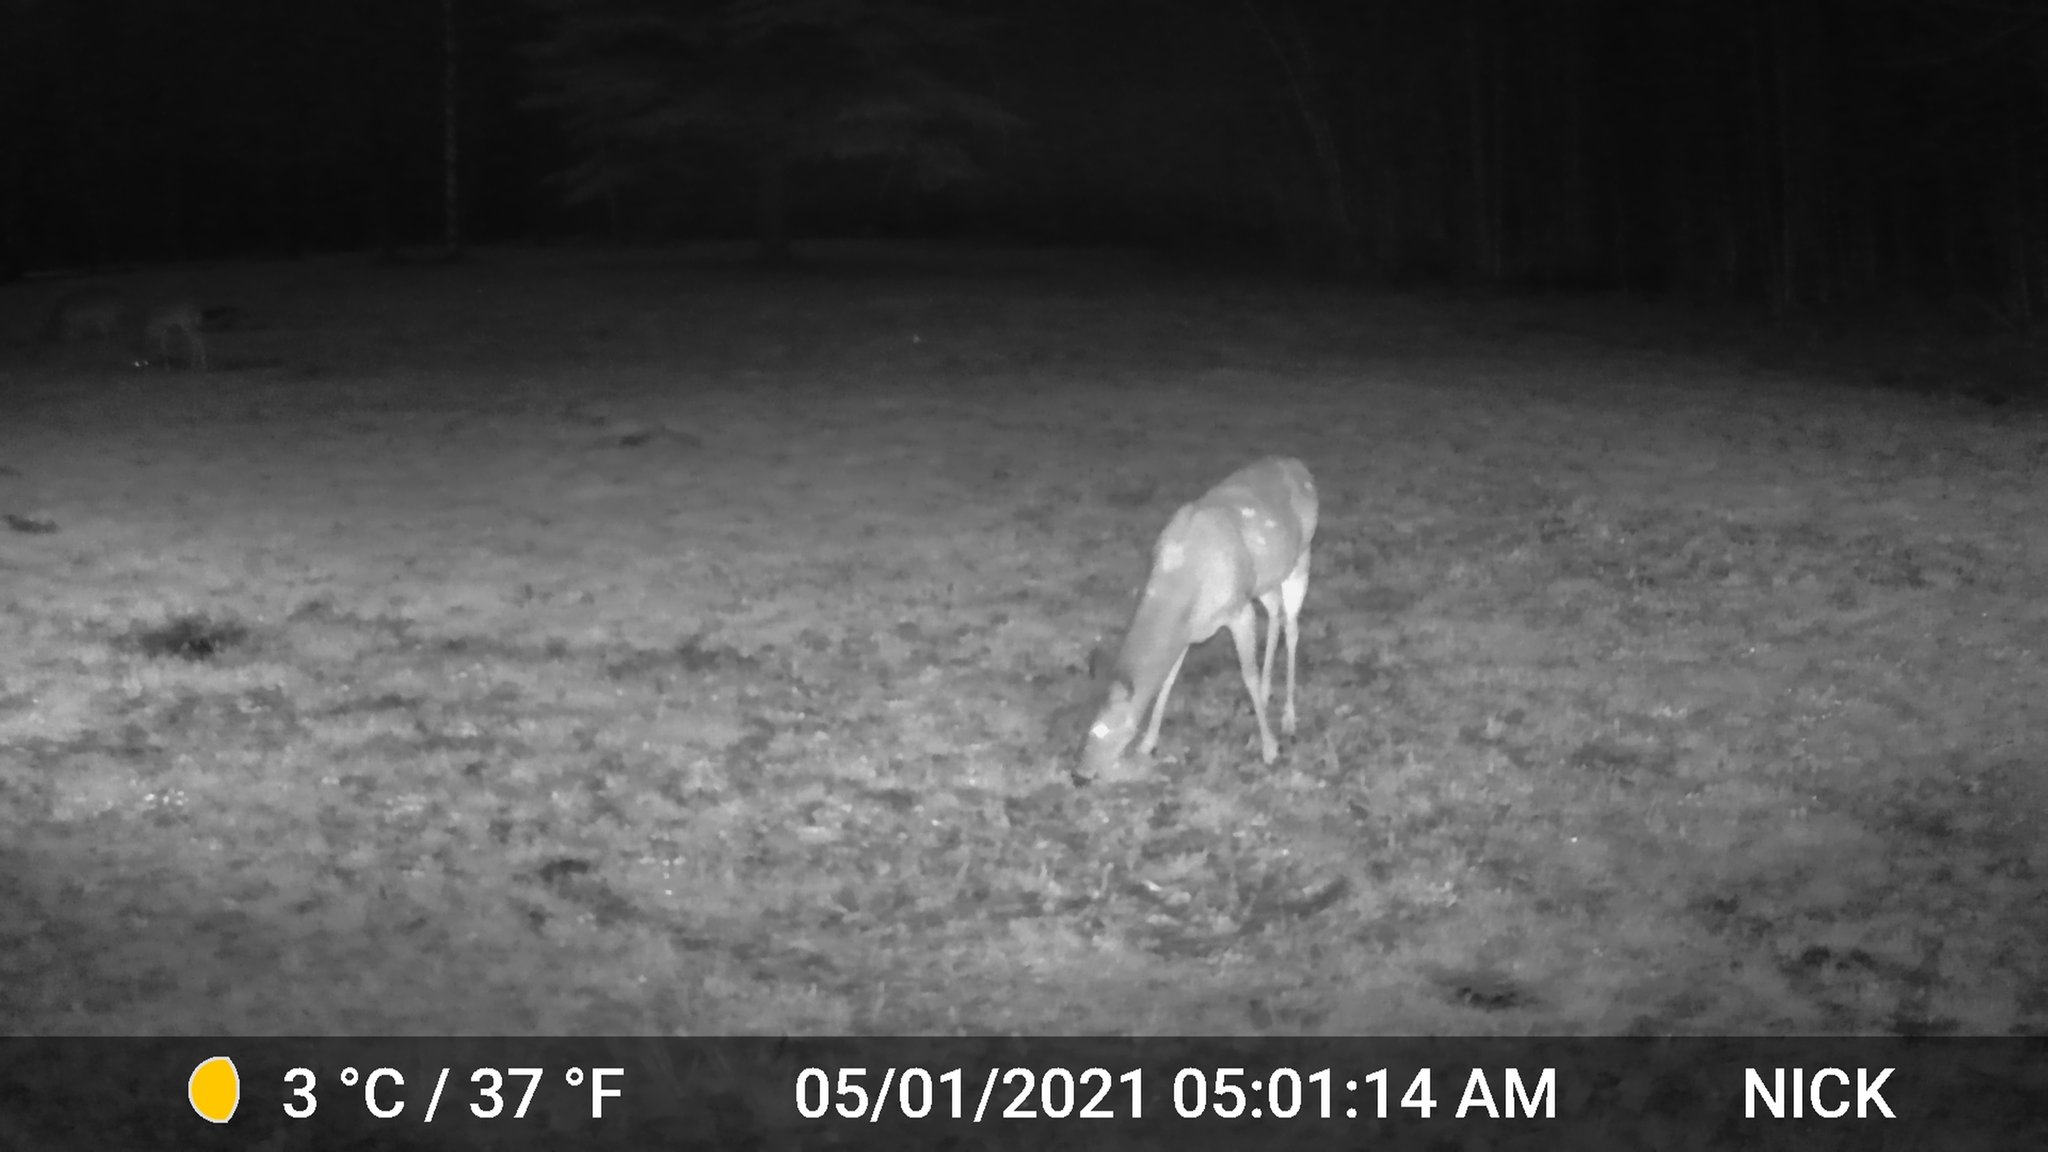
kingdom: Animalia
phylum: Chordata
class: Mammalia
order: Artiodactyla
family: Cervidae
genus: Odocoileus
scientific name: Odocoileus virginianus
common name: White-tailed deer
